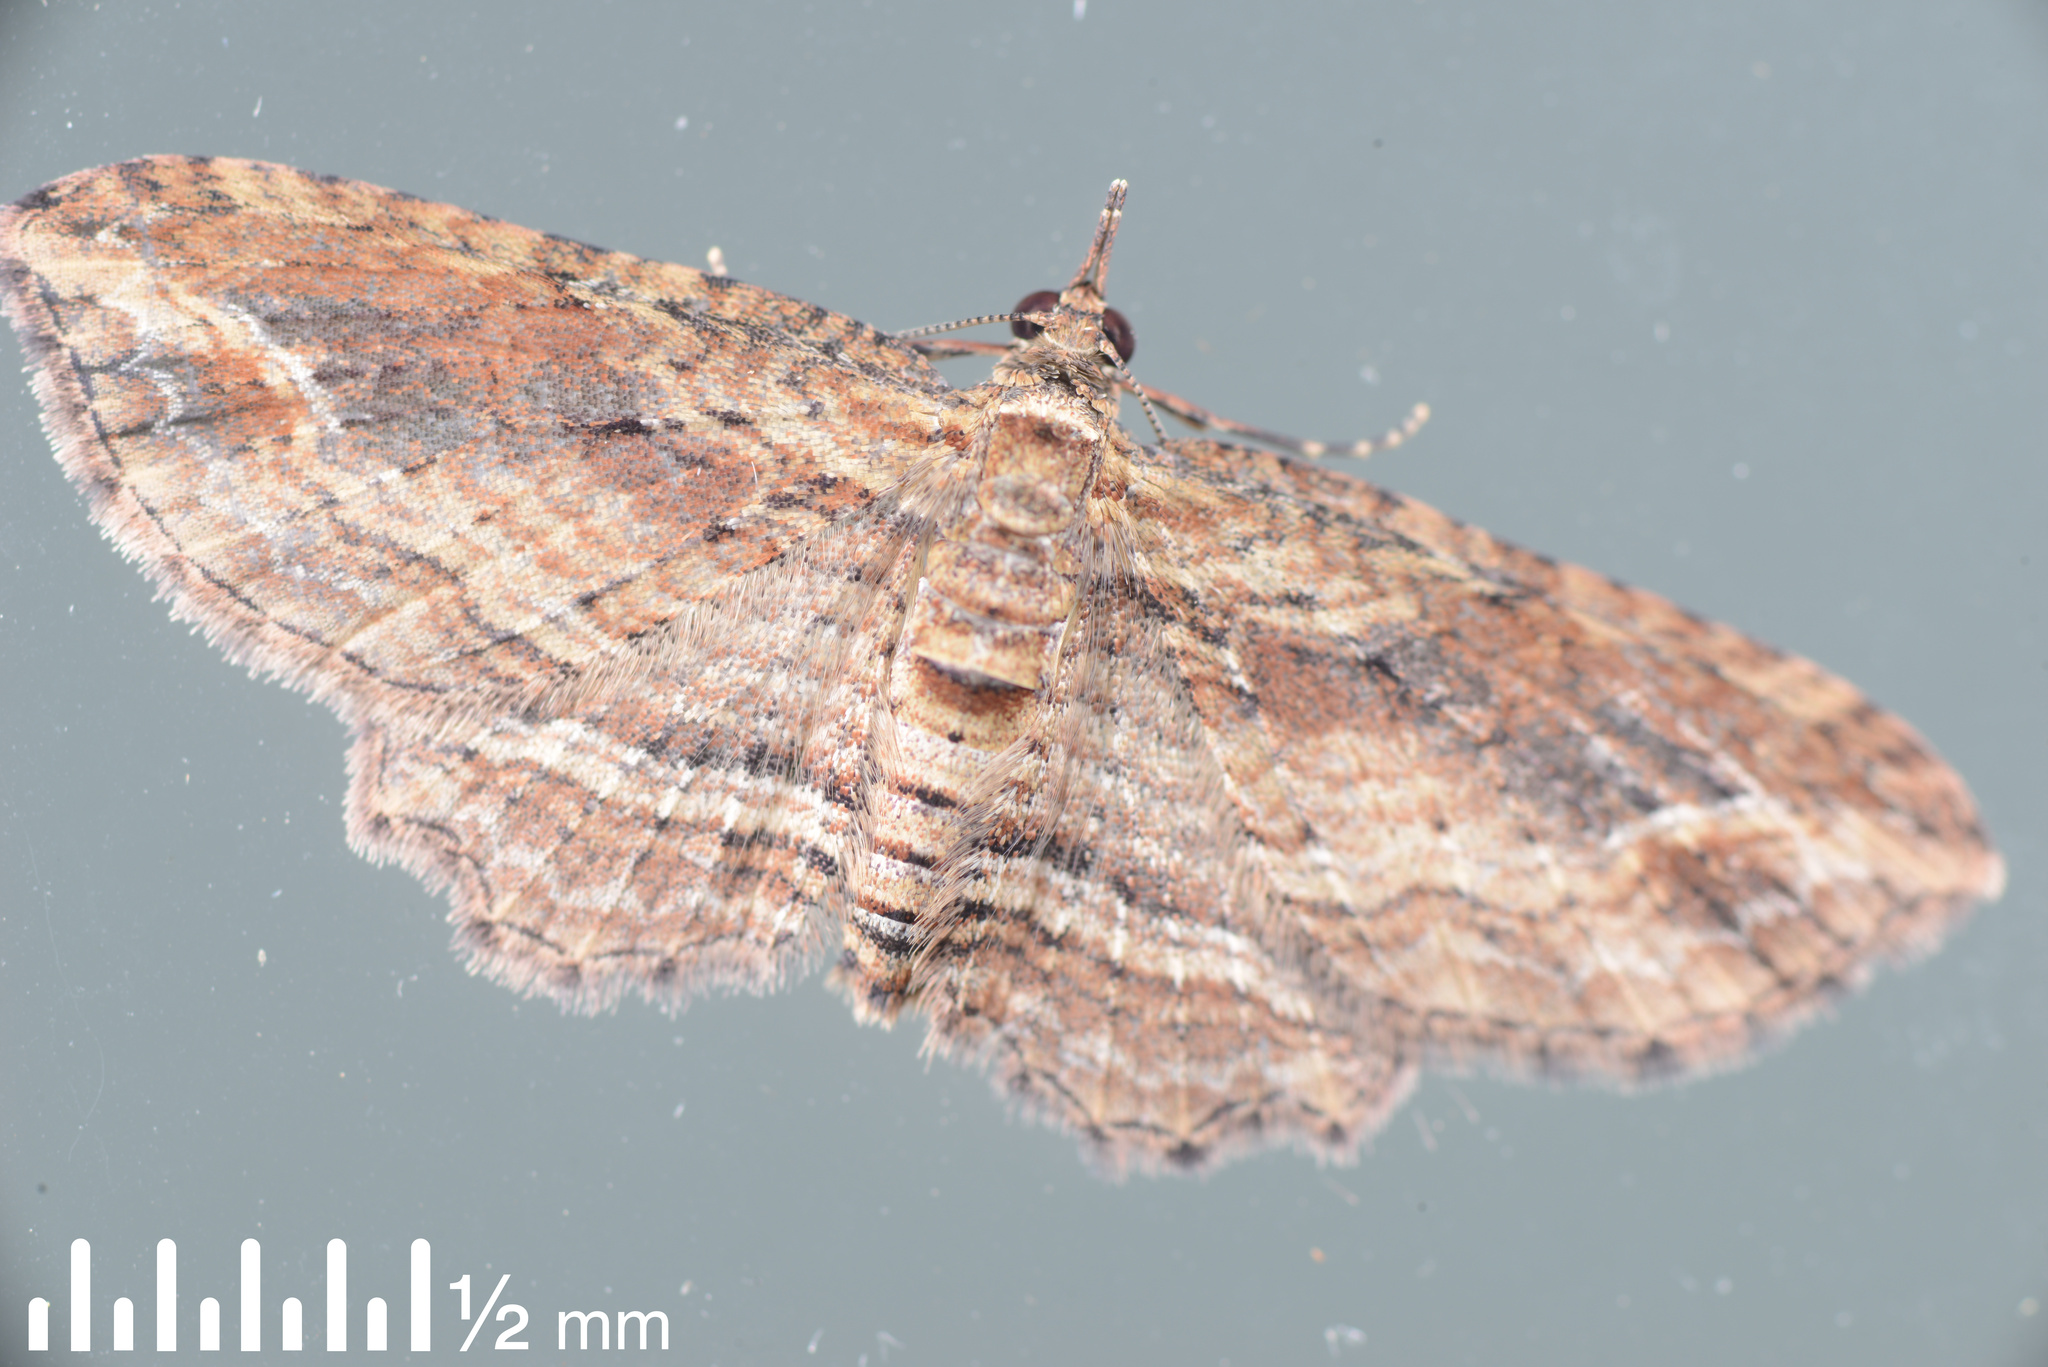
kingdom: Animalia
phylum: Arthropoda
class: Insecta
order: Lepidoptera
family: Geometridae
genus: Chloroclystis
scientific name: Chloroclystis filata
